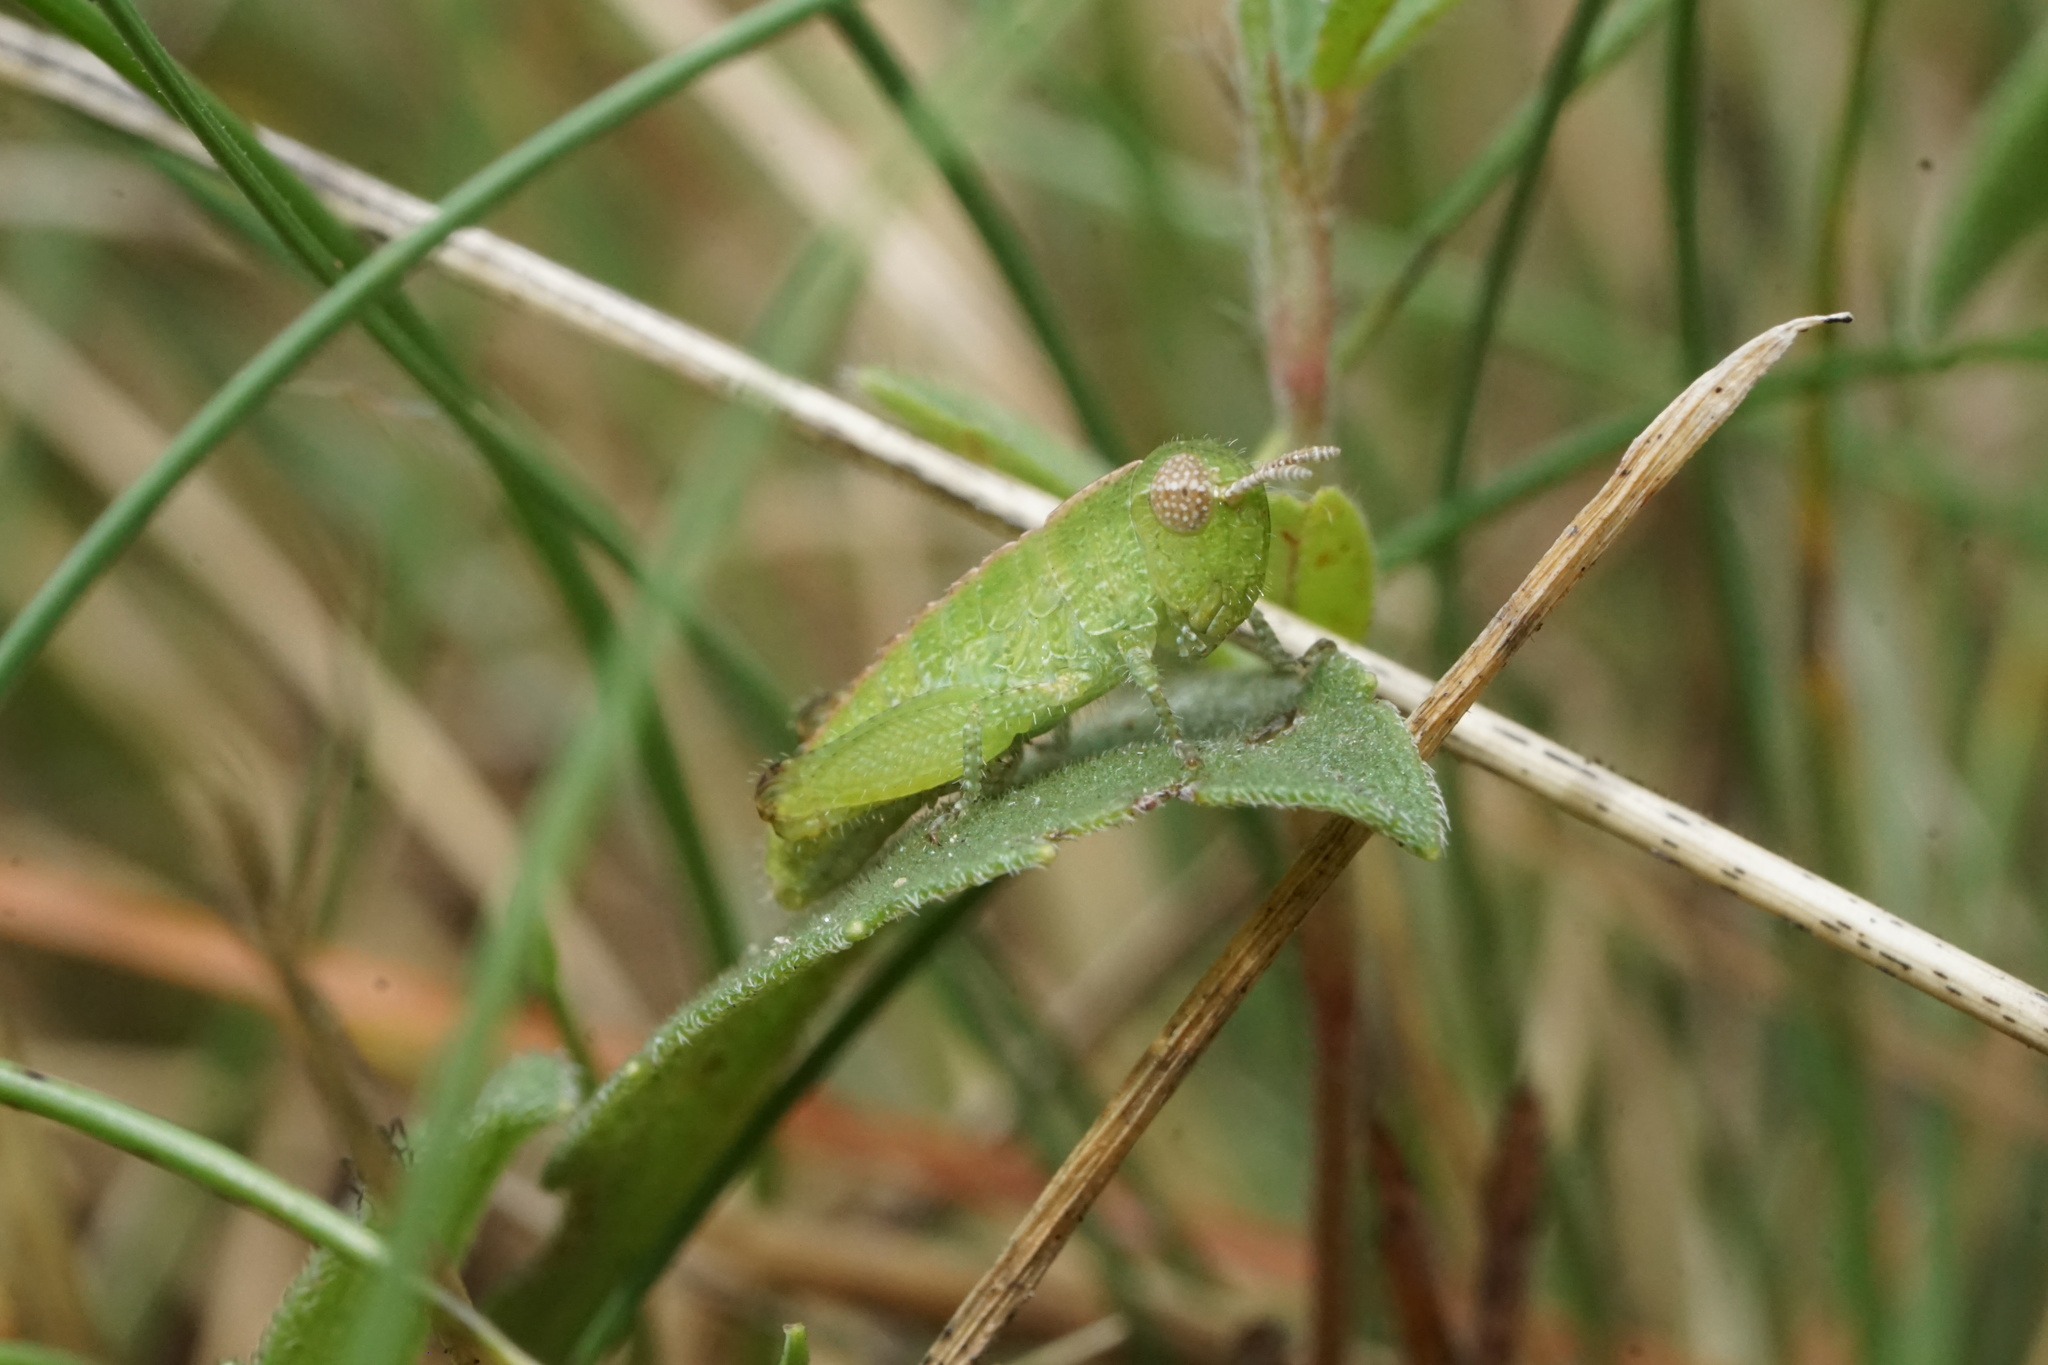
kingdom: Animalia
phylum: Arthropoda
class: Insecta
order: Orthoptera
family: Acrididae
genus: Chortophaga
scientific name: Chortophaga viridifasciata
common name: Green-striped grasshopper
